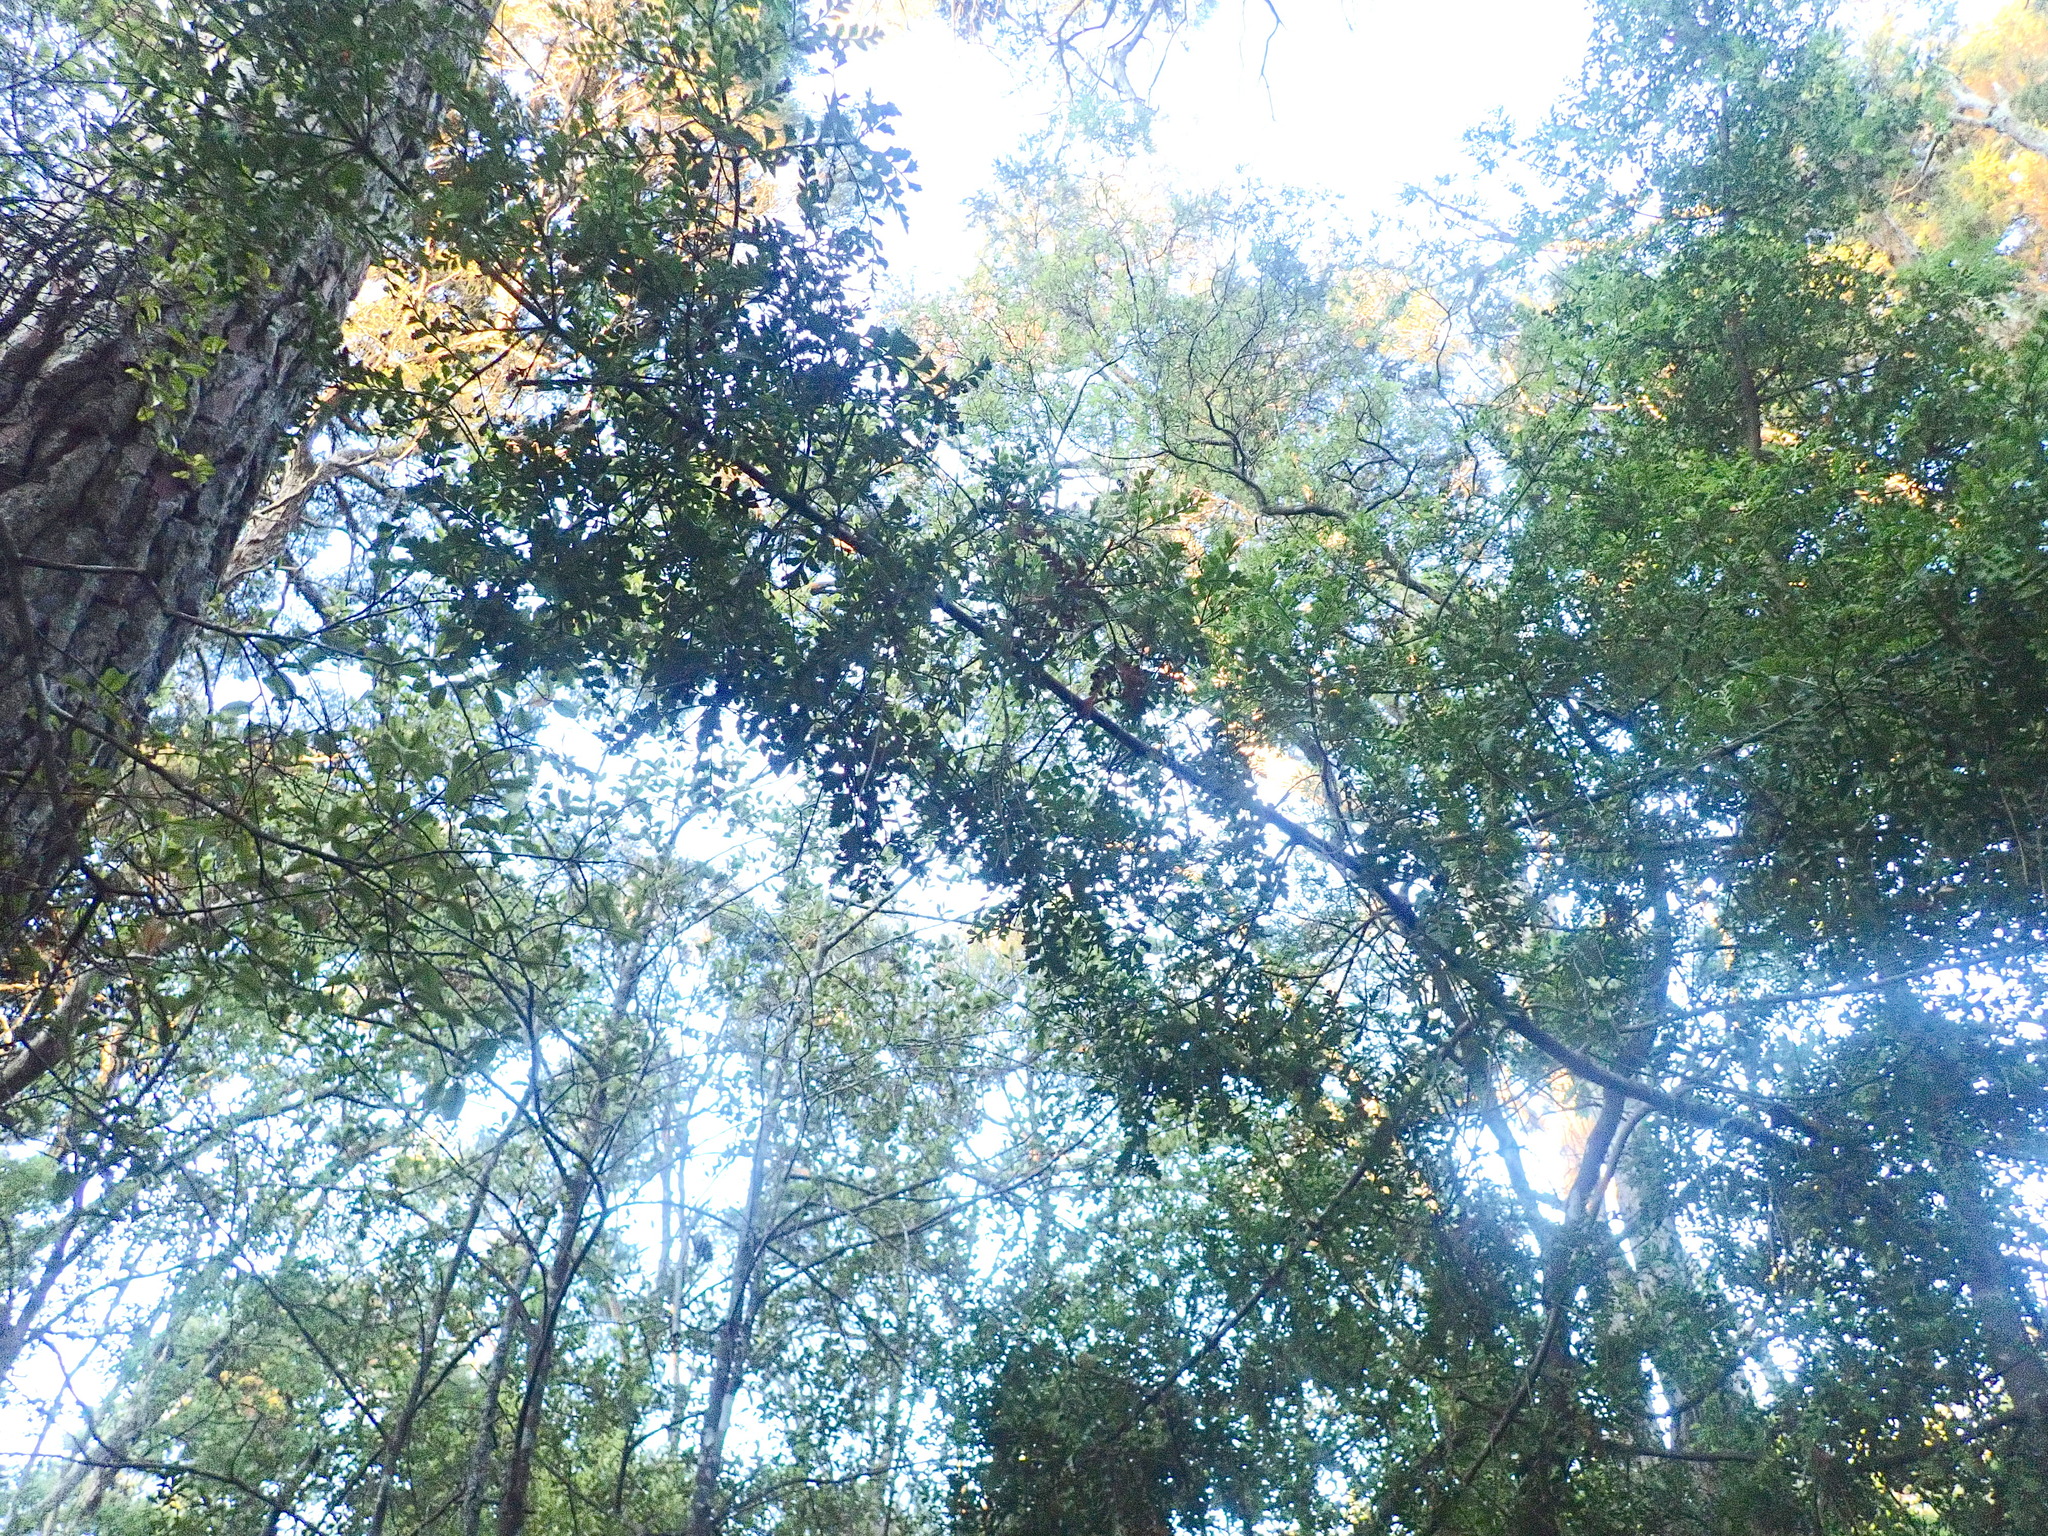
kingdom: Plantae
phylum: Tracheophyta
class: Pinopsida
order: Pinales
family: Phyllocladaceae
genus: Phyllocladus
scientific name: Phyllocladus trichomanoides
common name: Celery pine
